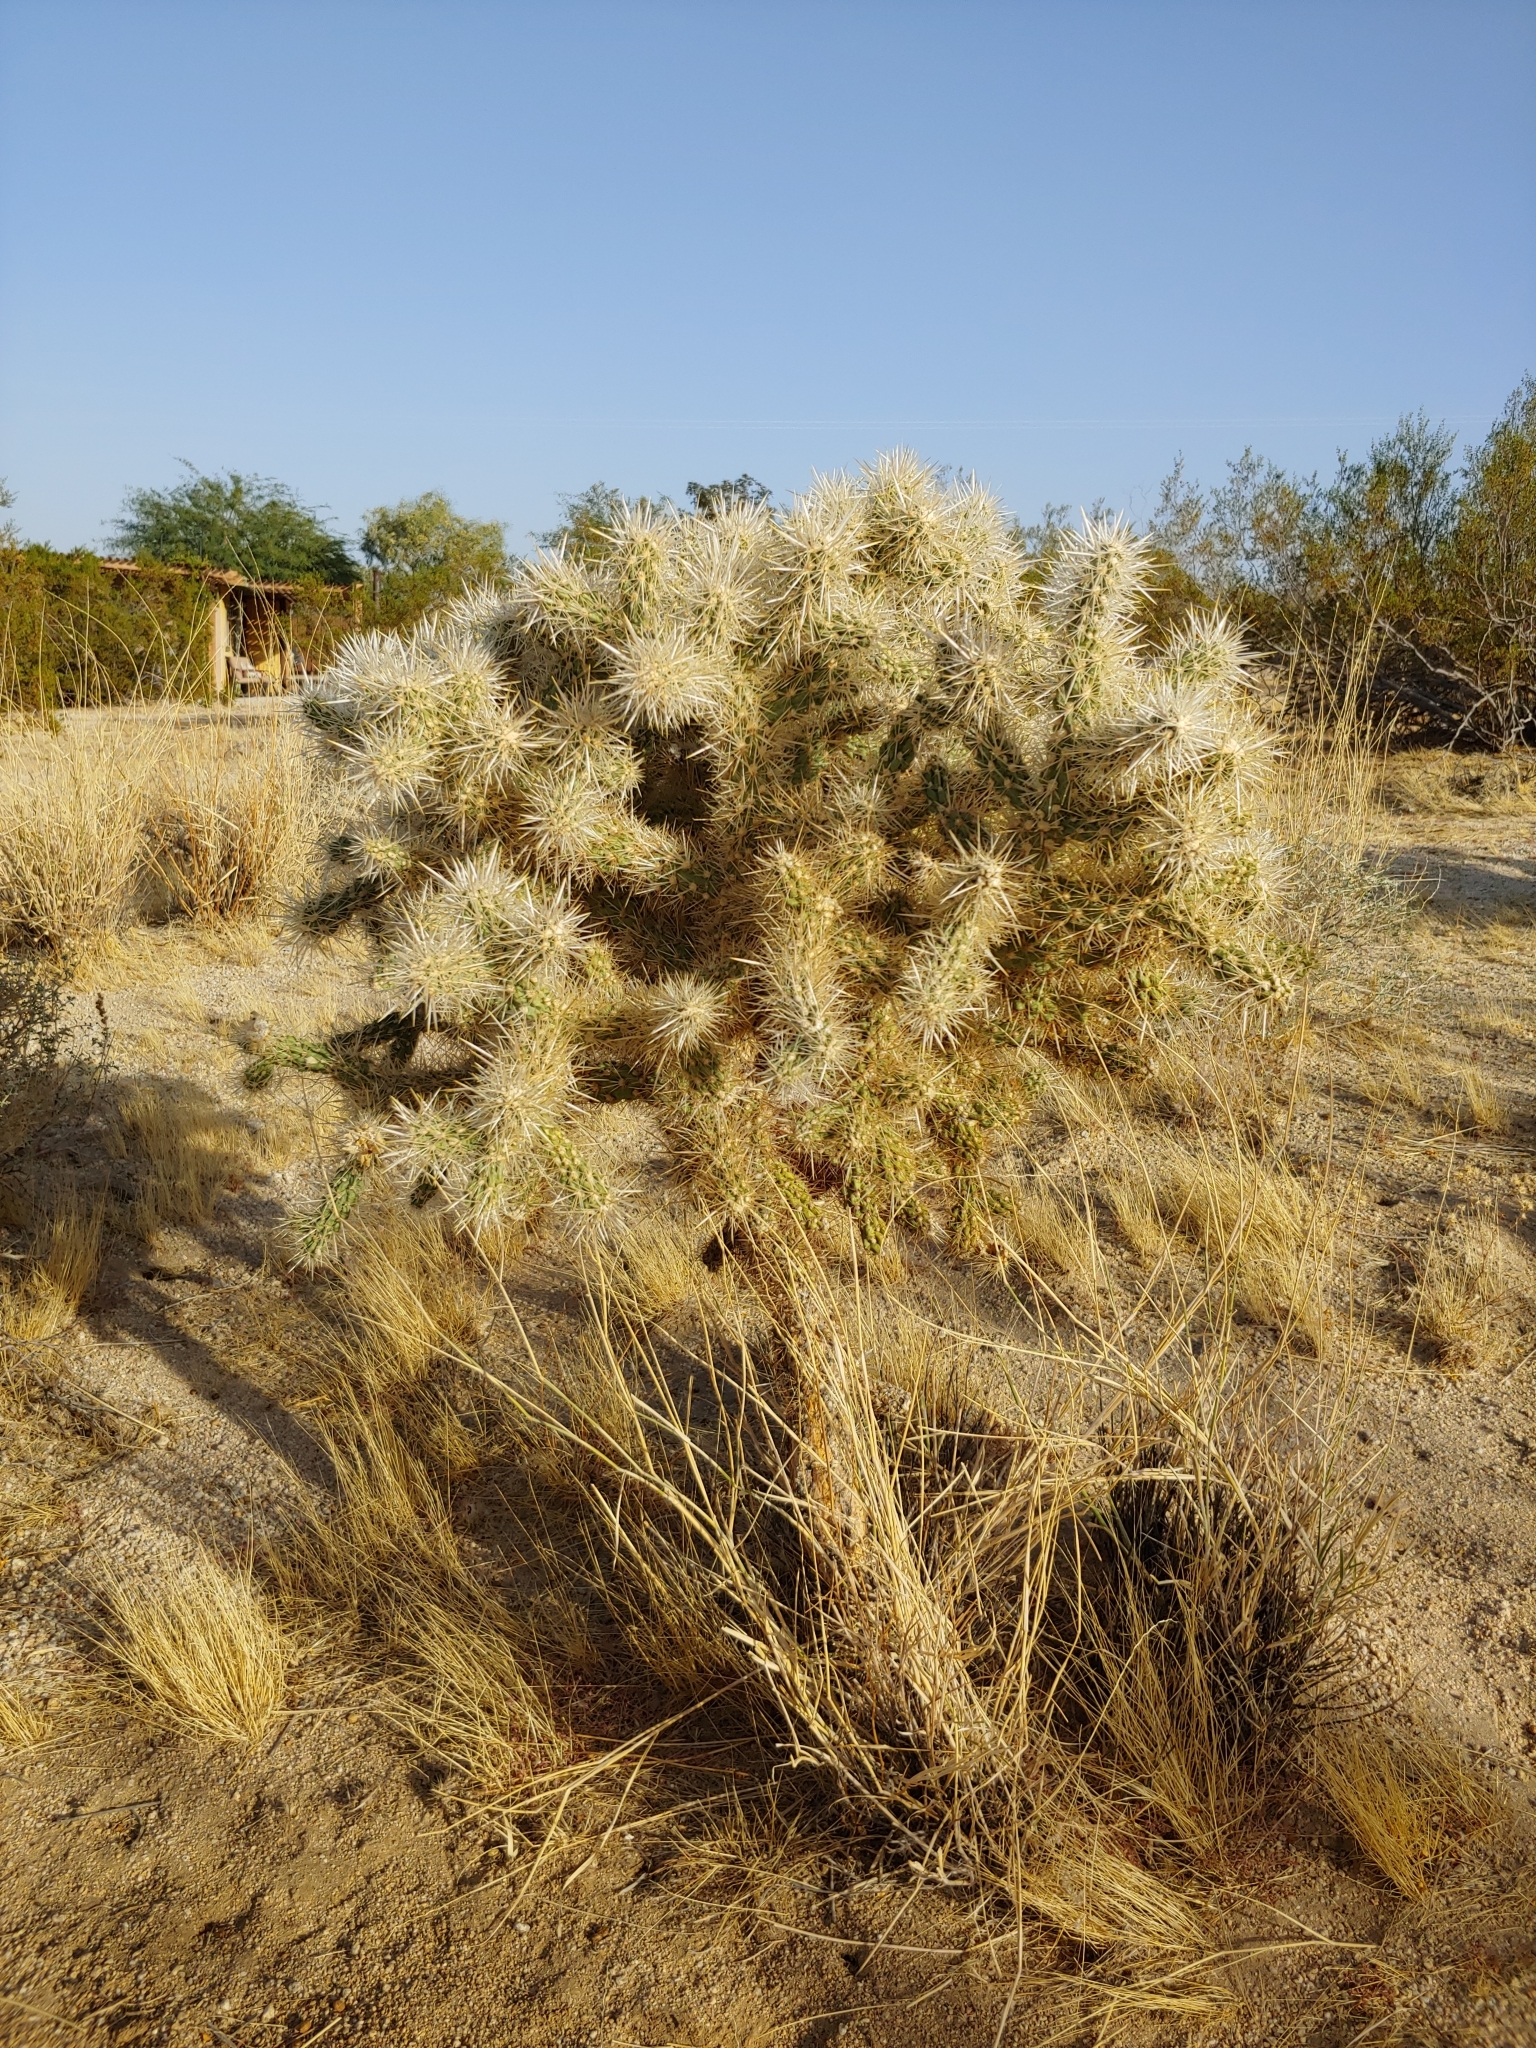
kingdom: Plantae
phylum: Tracheophyta
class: Magnoliopsida
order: Caryophyllales
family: Cactaceae
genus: Cylindropuntia
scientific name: Cylindropuntia echinocarpa
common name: Ground cholla
